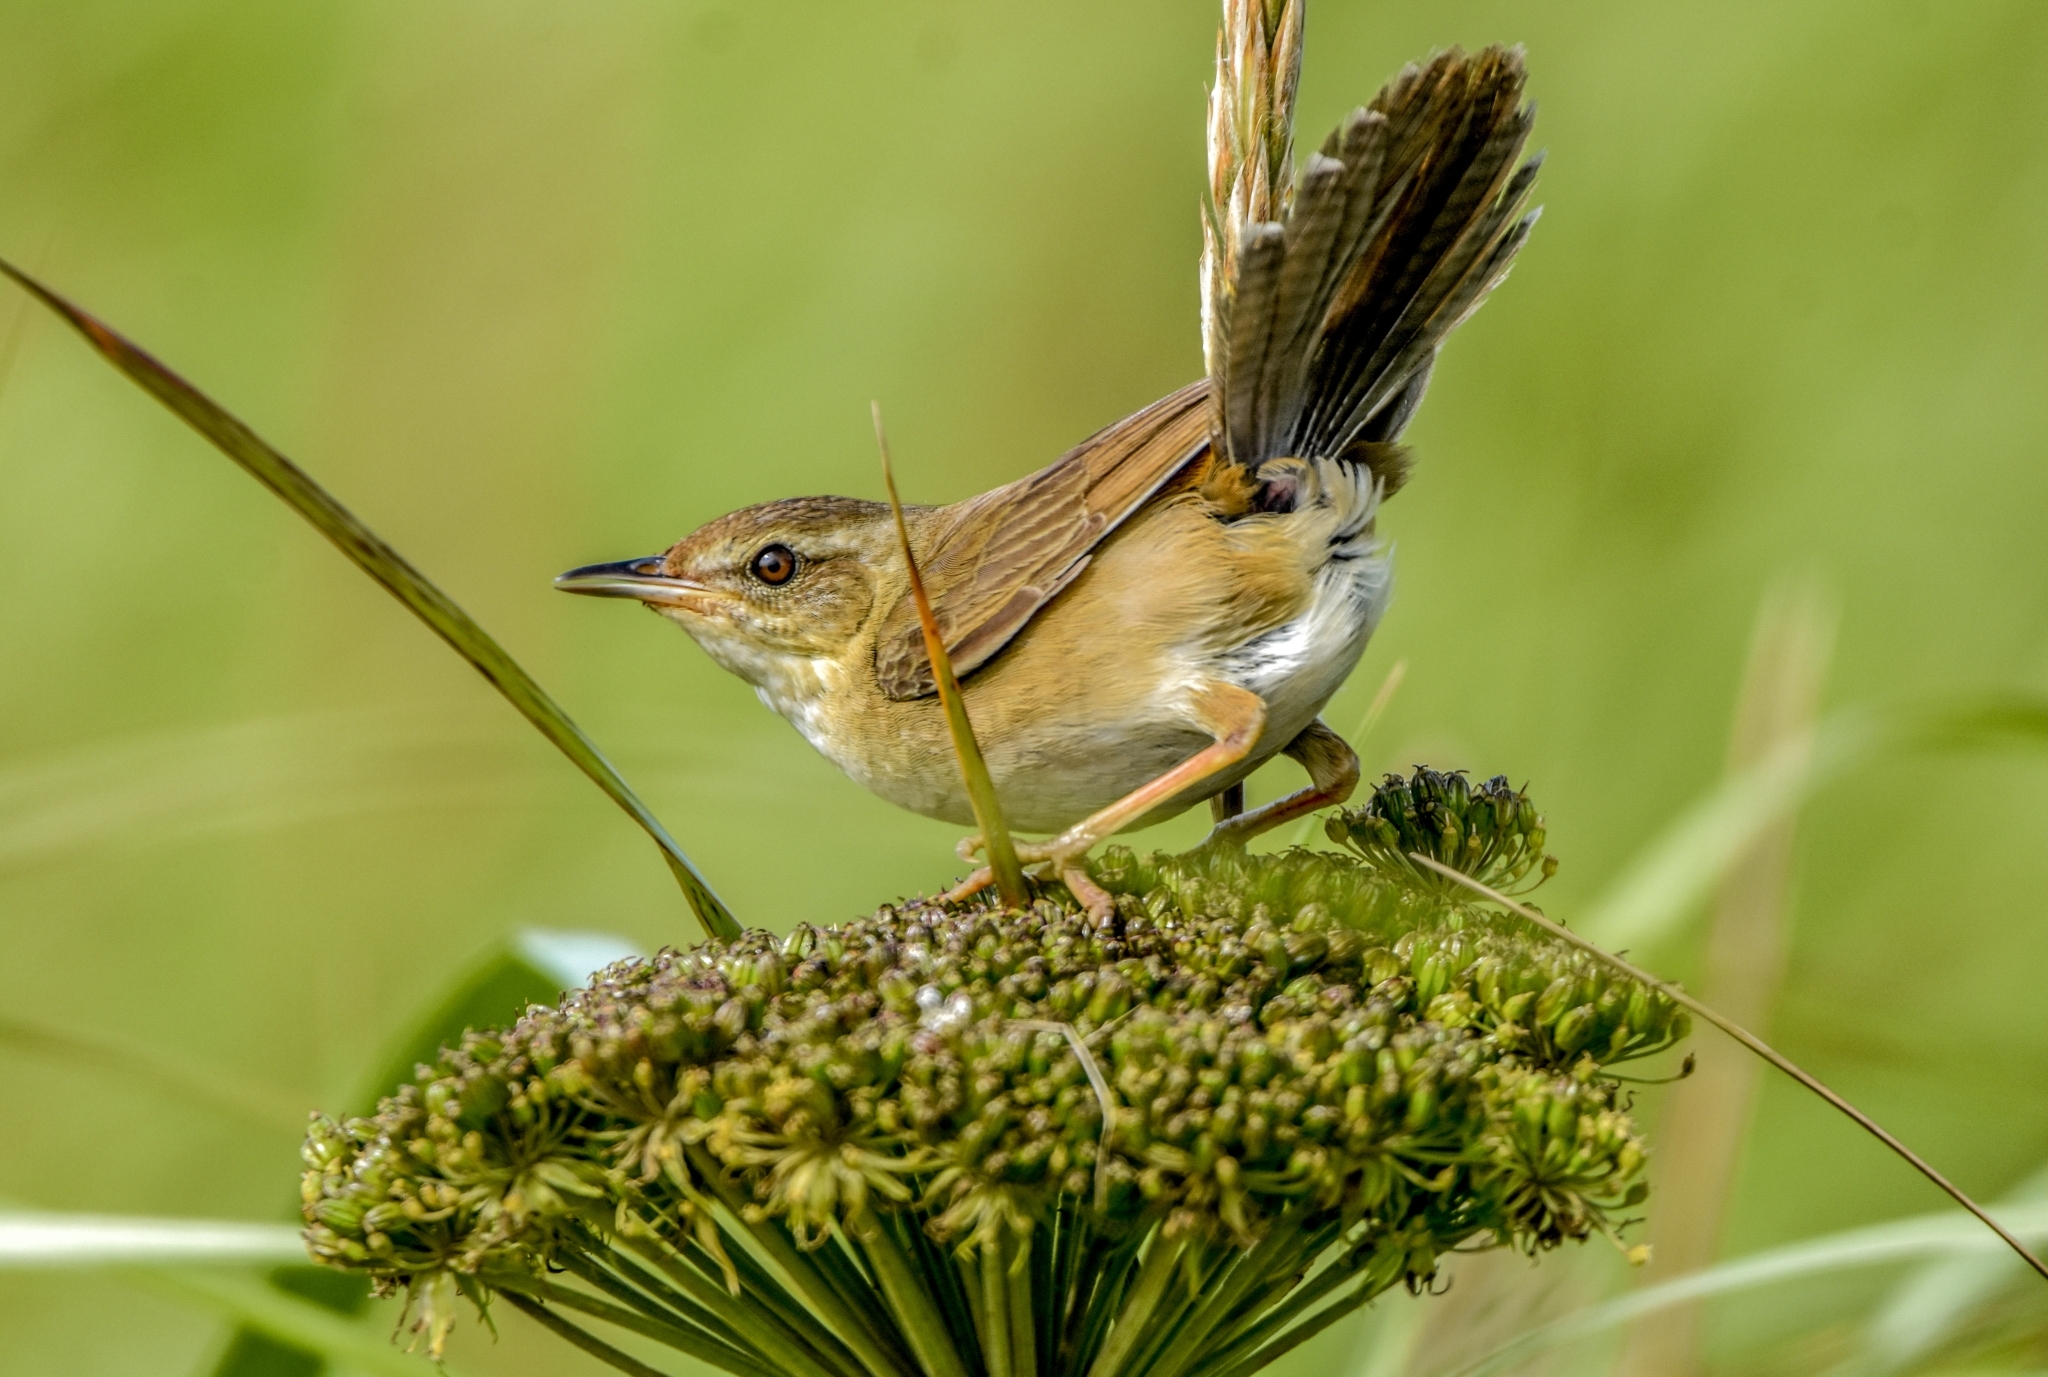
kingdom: Animalia
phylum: Chordata
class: Aves
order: Passeriformes
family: Locustellidae
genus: Locustella
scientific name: Locustella ochotensis
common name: Middendorff's grasshopper-warbler
